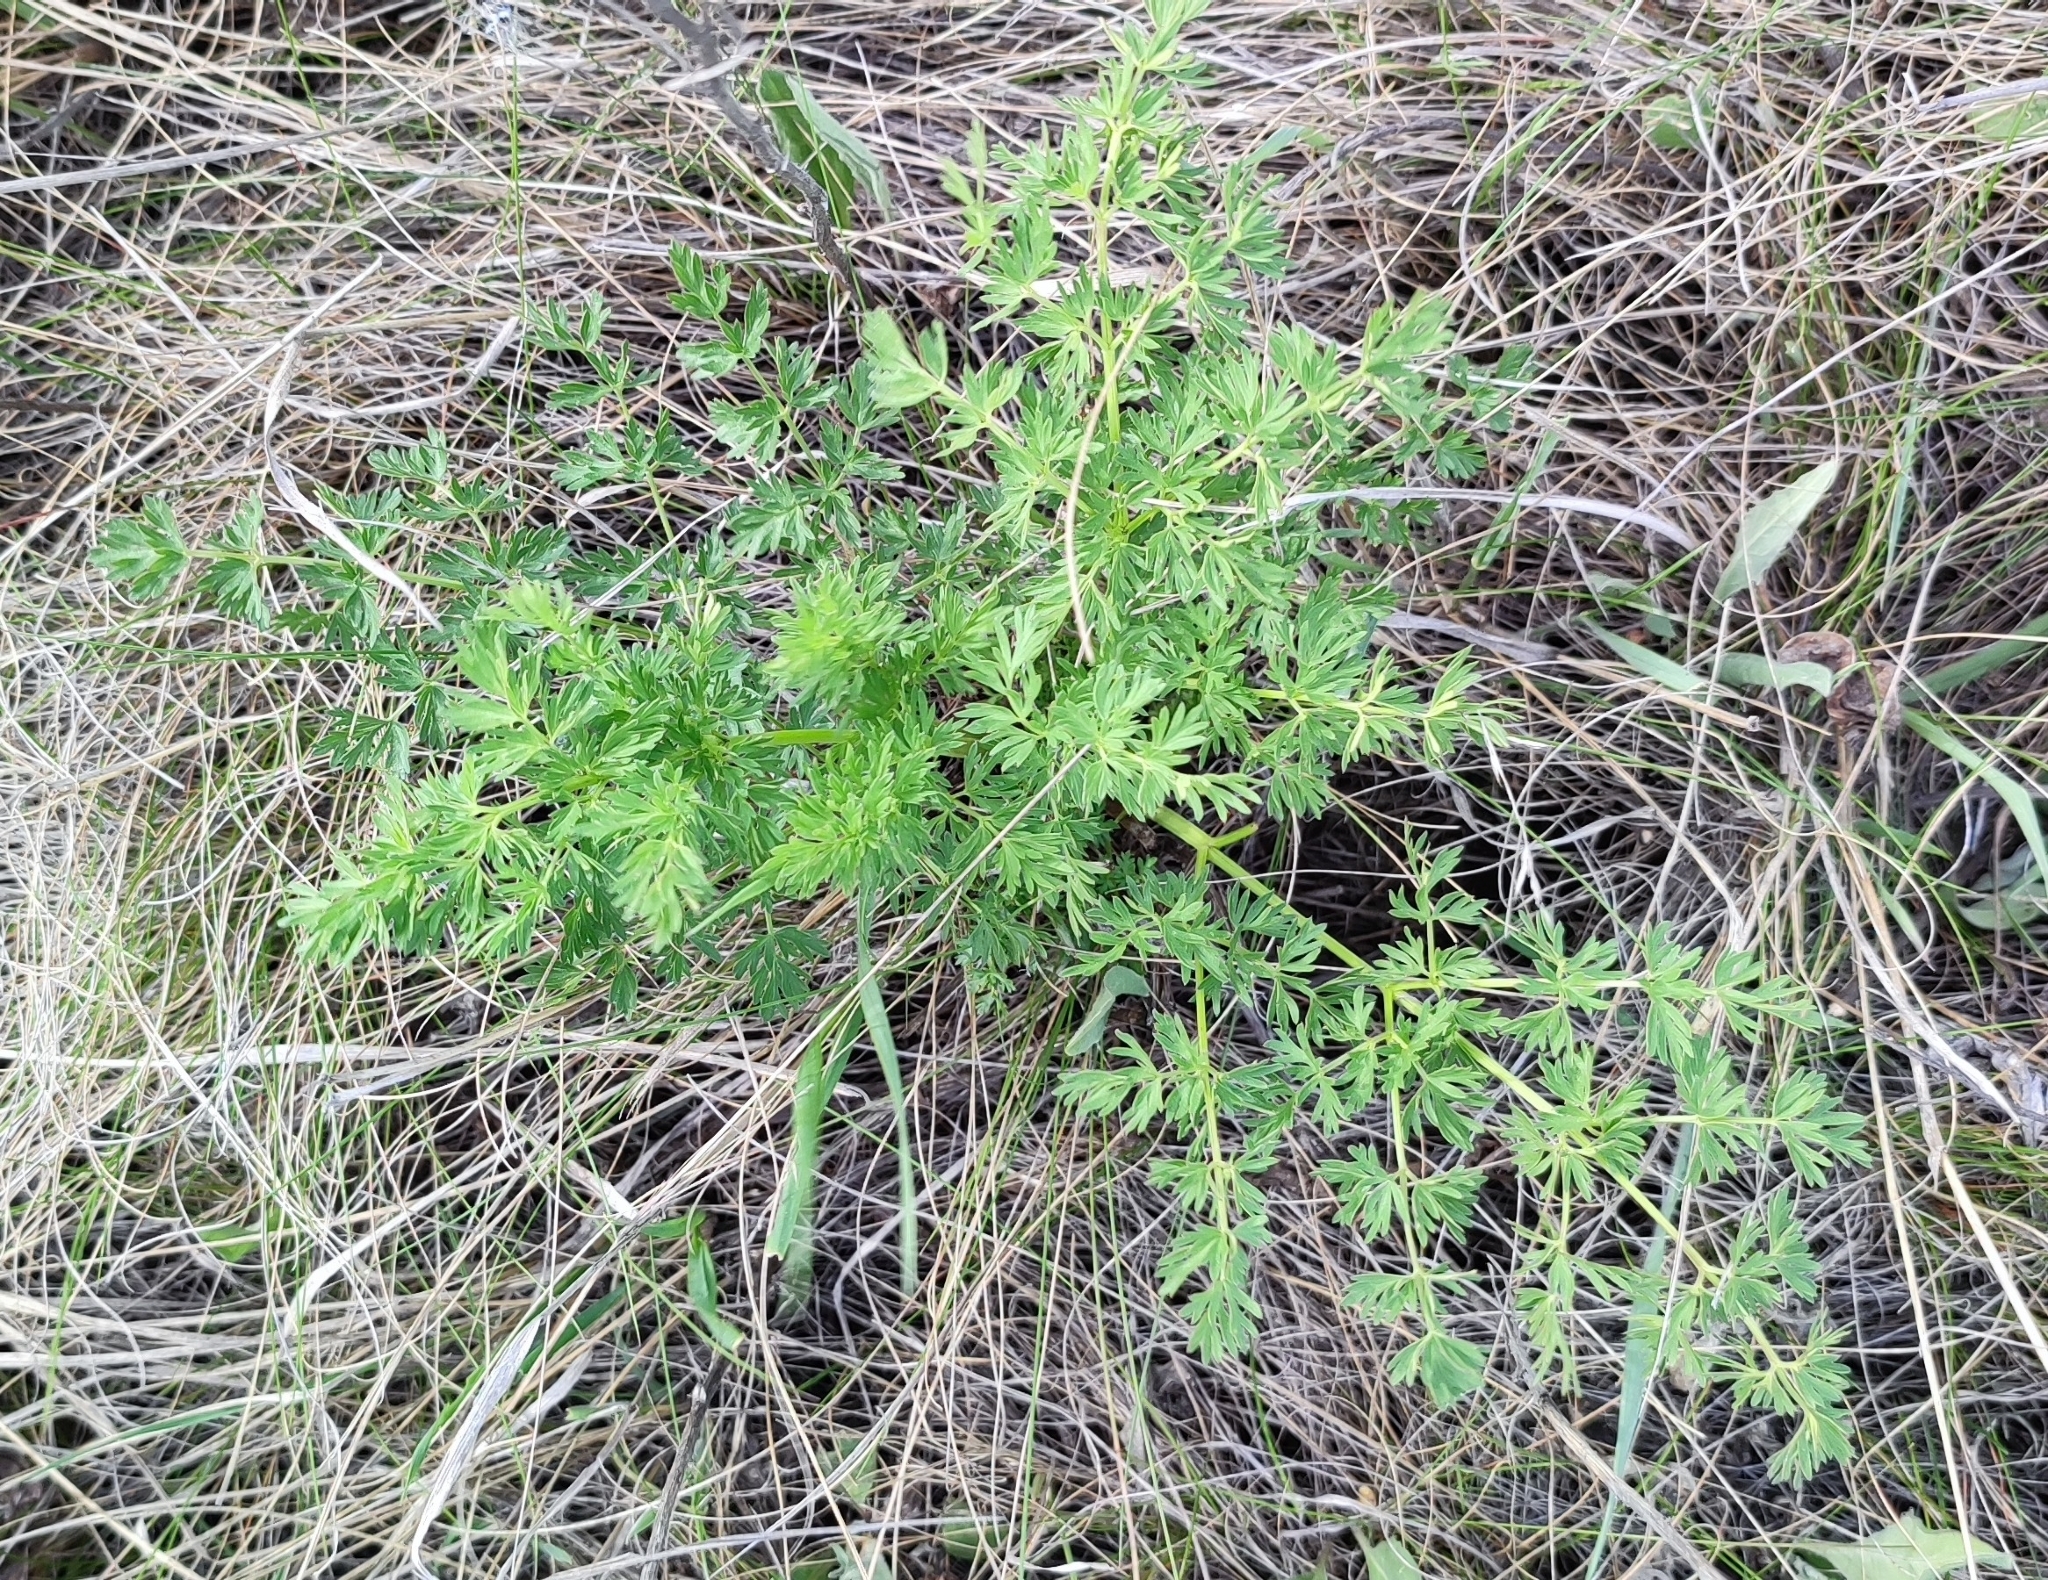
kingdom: Plantae
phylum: Tracheophyta
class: Magnoliopsida
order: Apiales
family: Apiaceae
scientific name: Apiaceae
